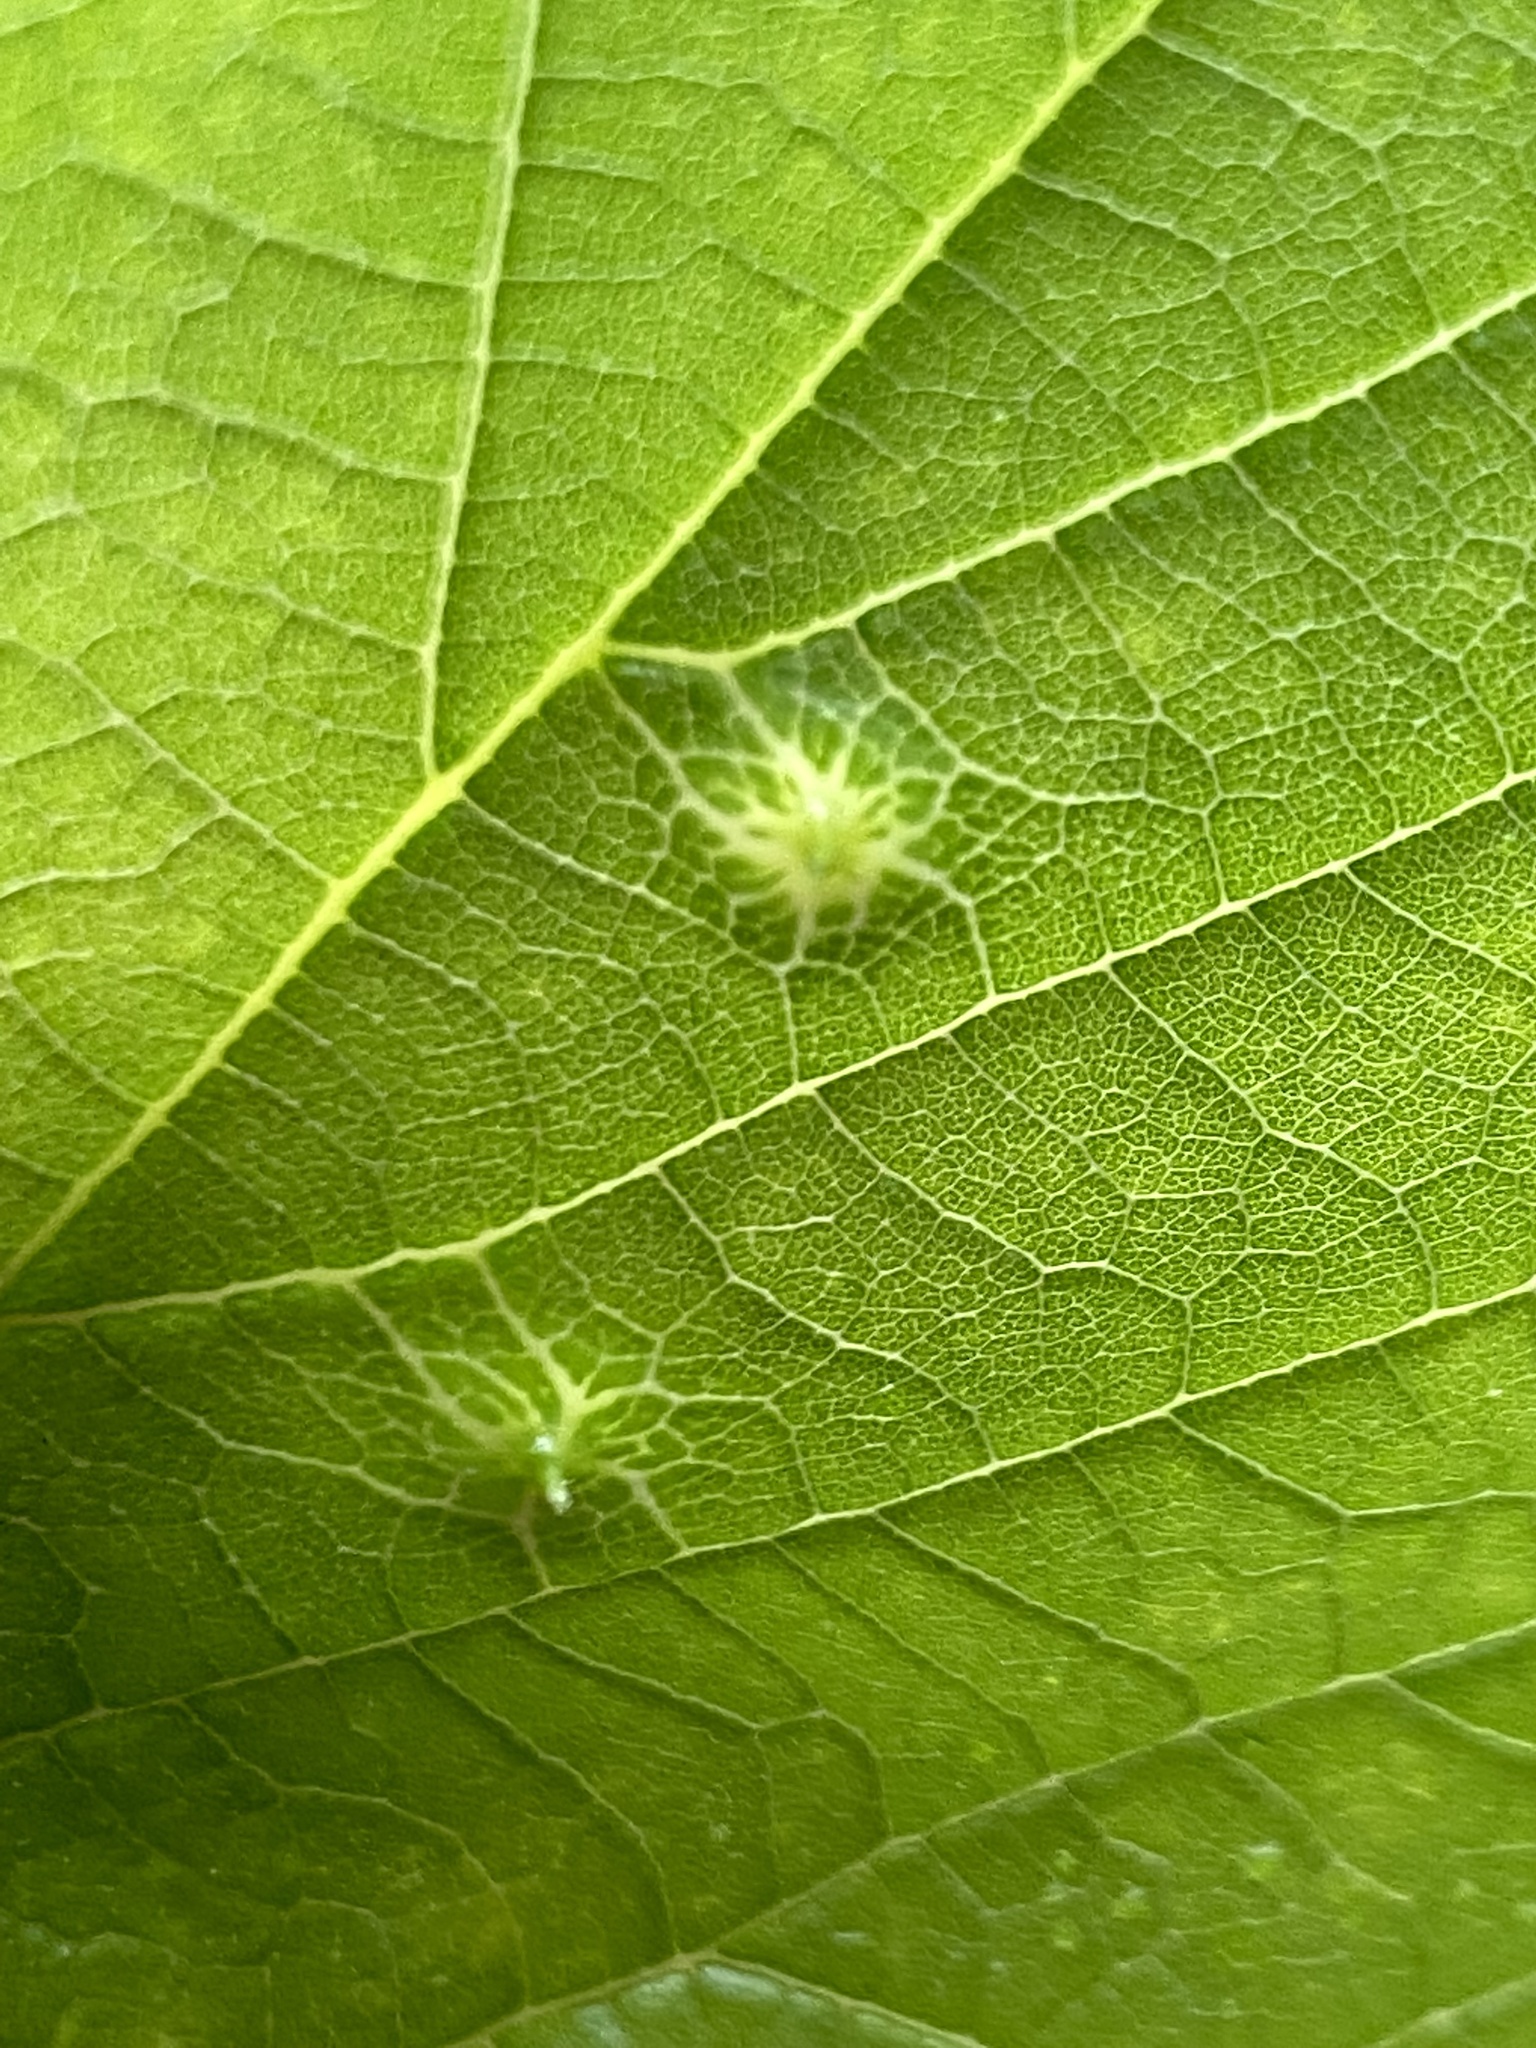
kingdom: Animalia
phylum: Arthropoda
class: Insecta
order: Hemiptera
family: Aphalaridae
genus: Pachypsylla
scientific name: Pachypsylla celtidismamma
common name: Hackberry nipplegall psyllid
